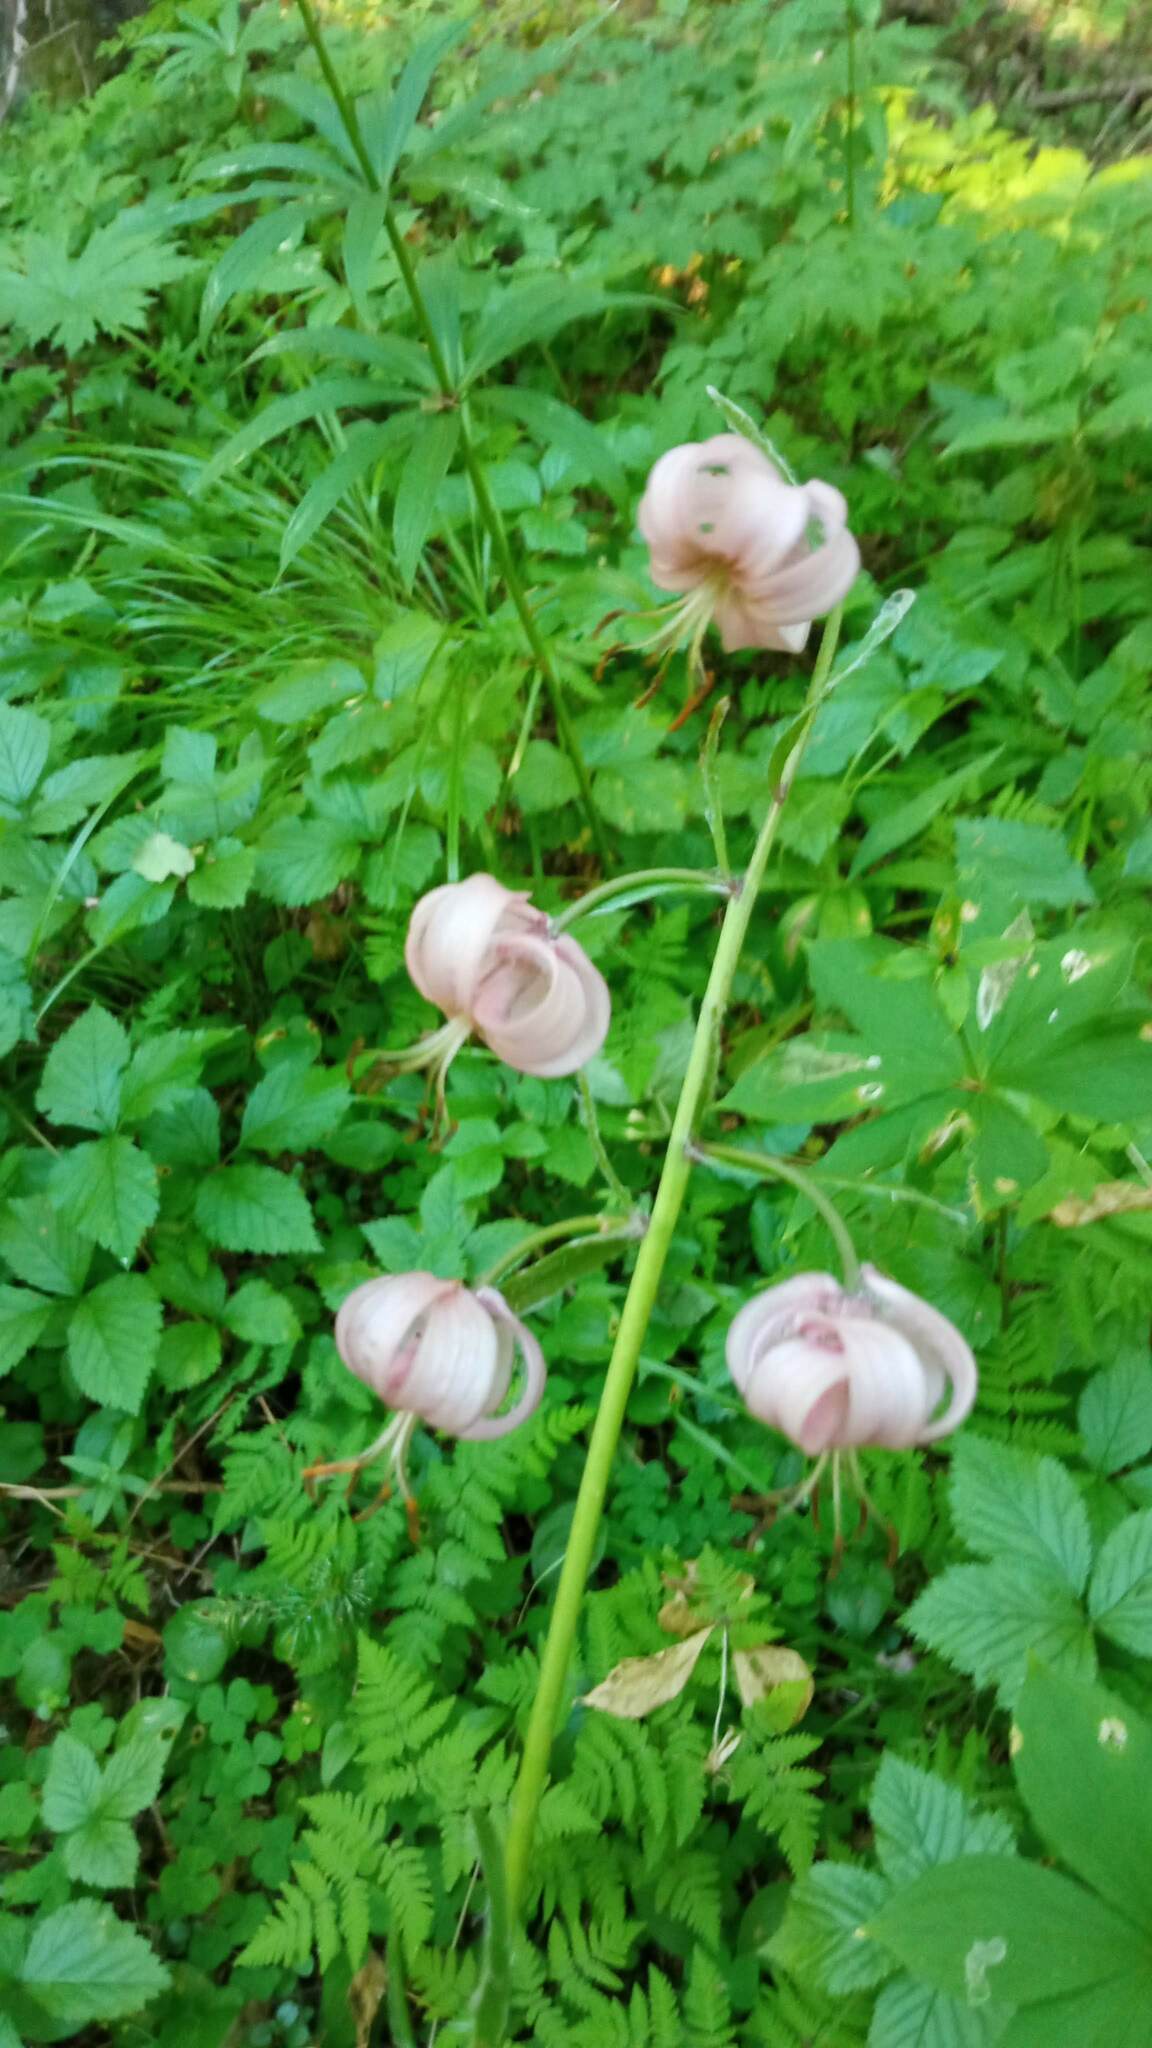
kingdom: Plantae
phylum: Tracheophyta
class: Liliopsida
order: Liliales
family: Liliaceae
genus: Lilium
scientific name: Lilium martagon
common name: Martagon lily
